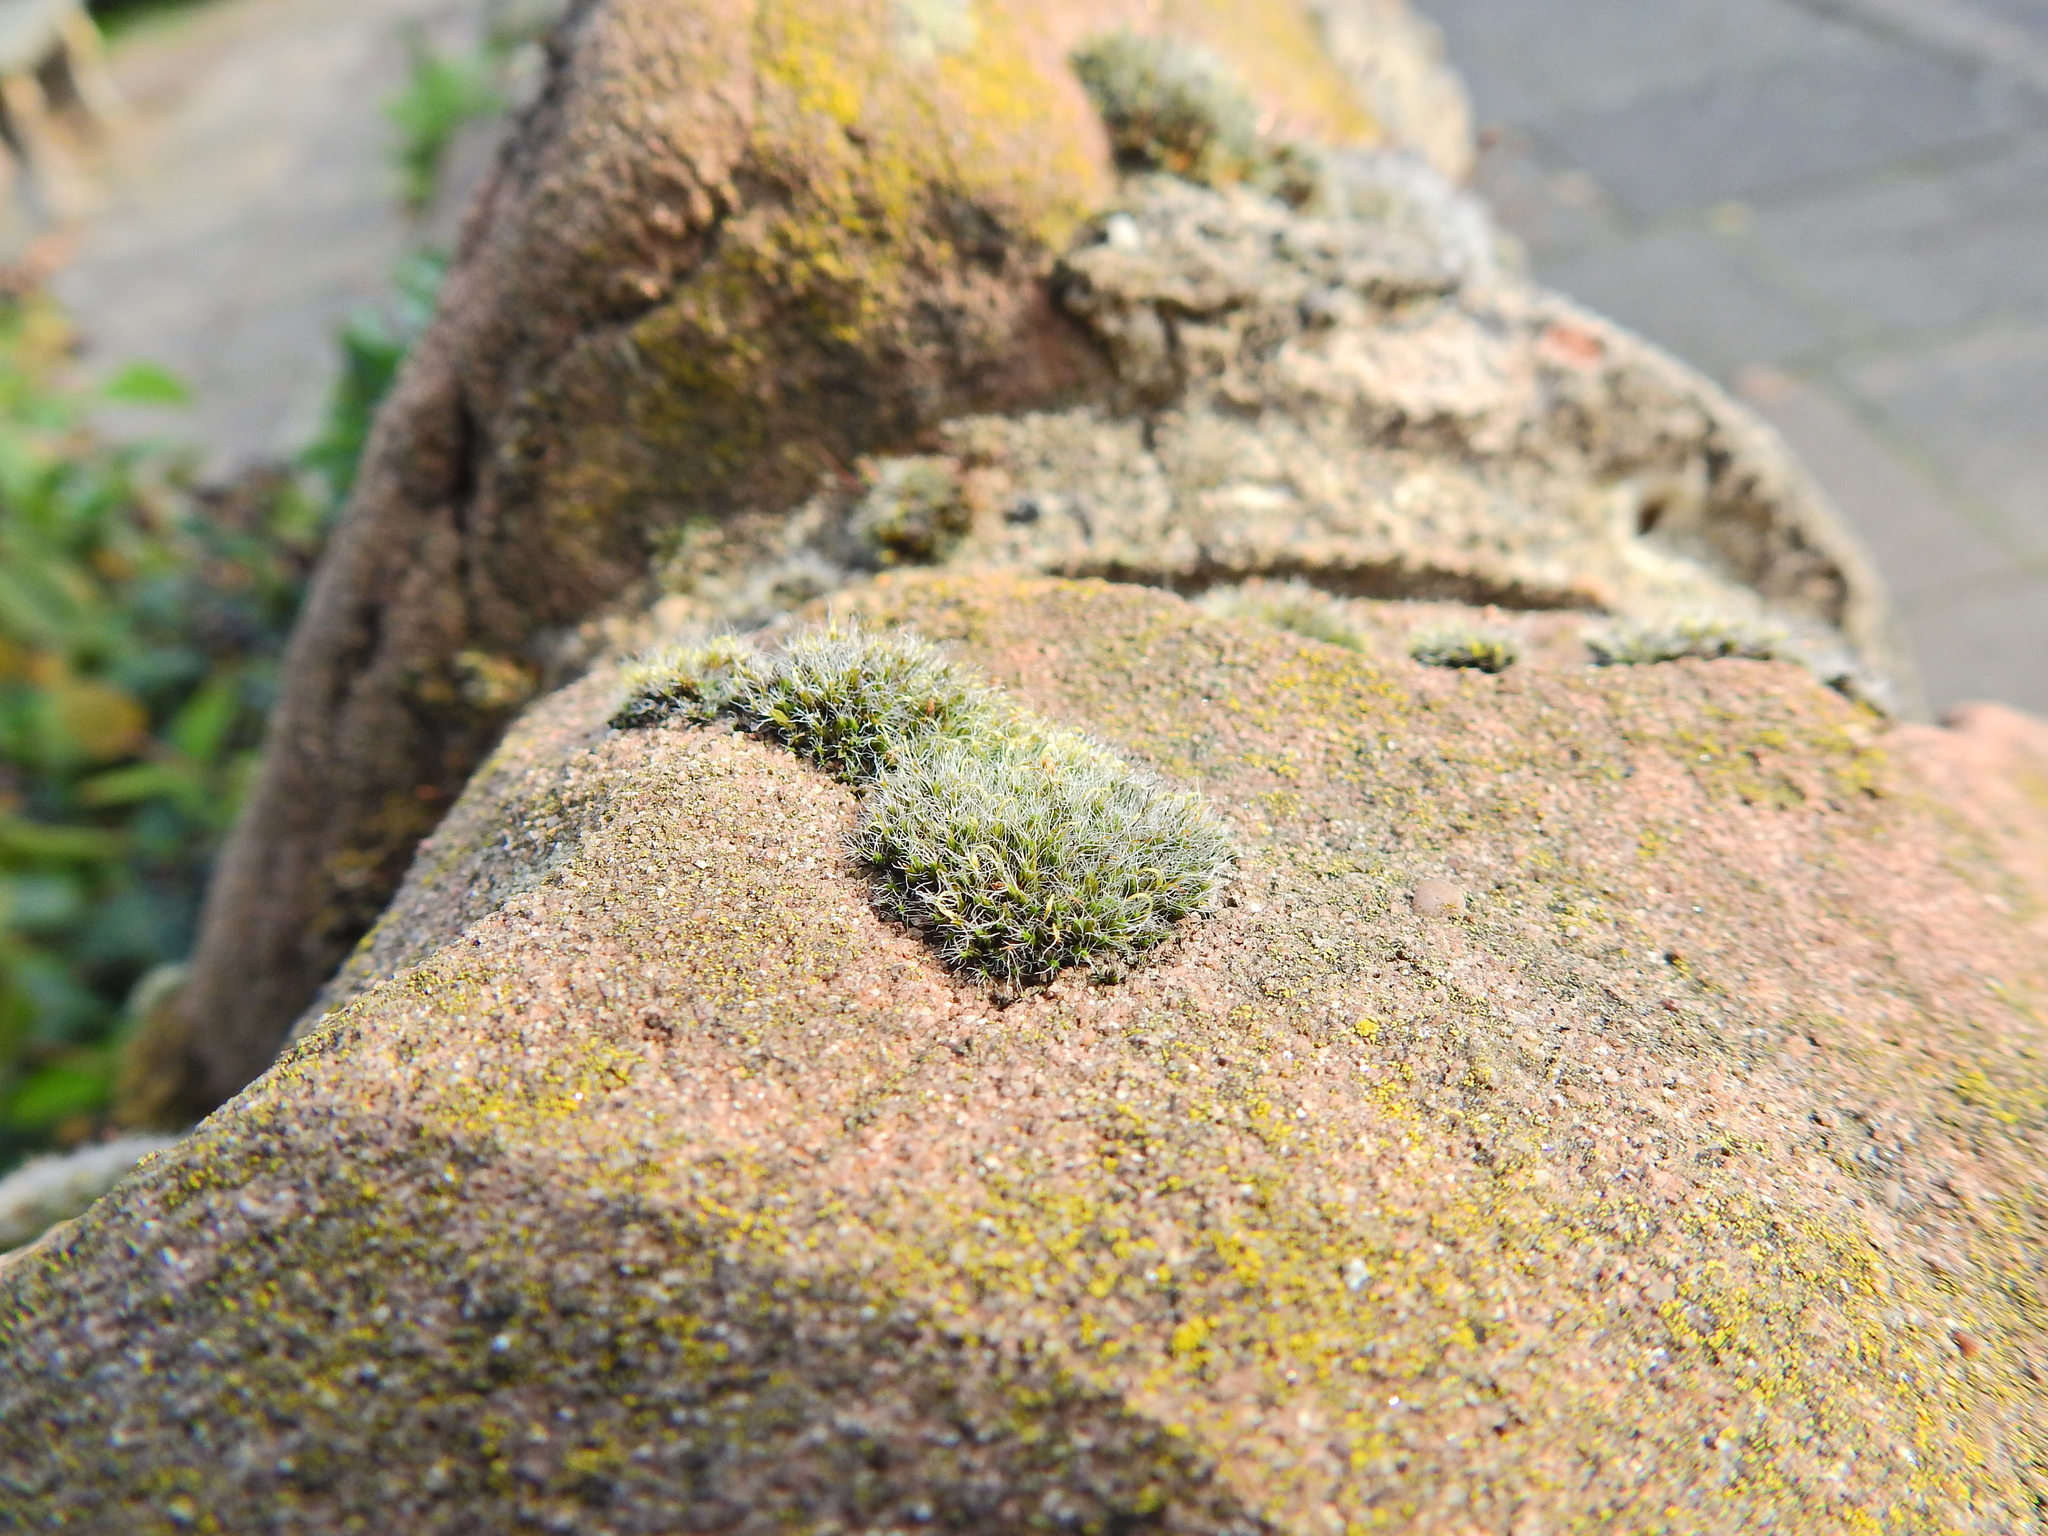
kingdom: Plantae
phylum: Bryophyta
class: Bryopsida
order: Grimmiales
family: Grimmiaceae
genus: Grimmia
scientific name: Grimmia pulvinata
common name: Grey-cushioned grimmia
